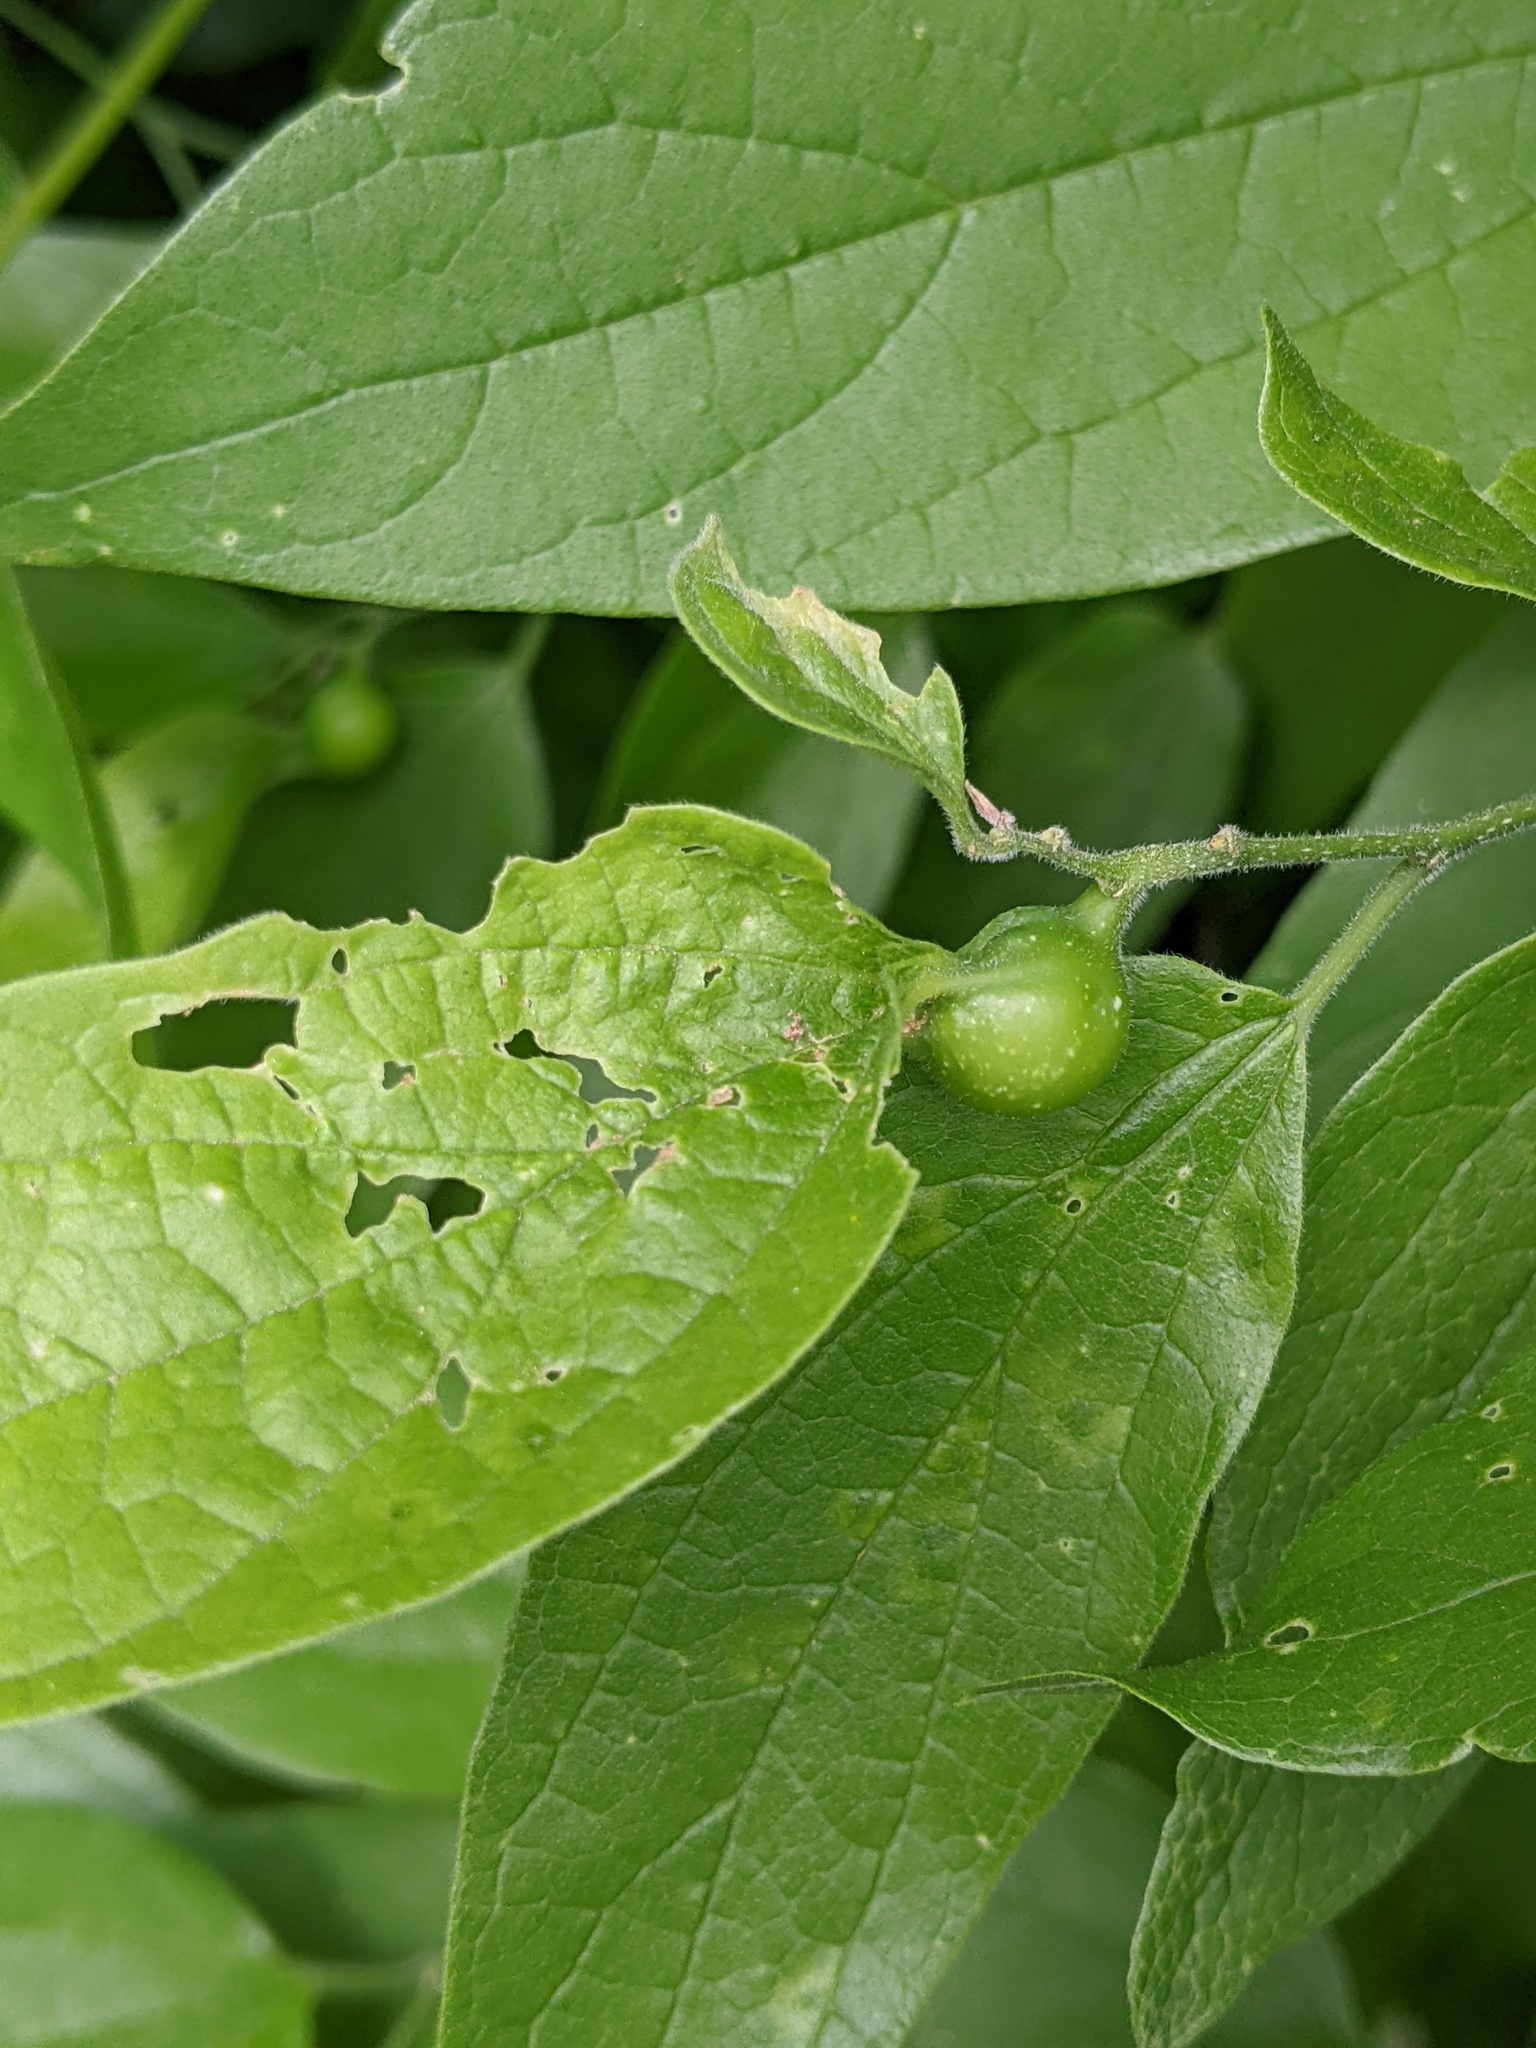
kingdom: Animalia
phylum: Arthropoda
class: Insecta
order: Hemiptera
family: Aphalaridae
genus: Pachypsylla
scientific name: Pachypsylla venusta
